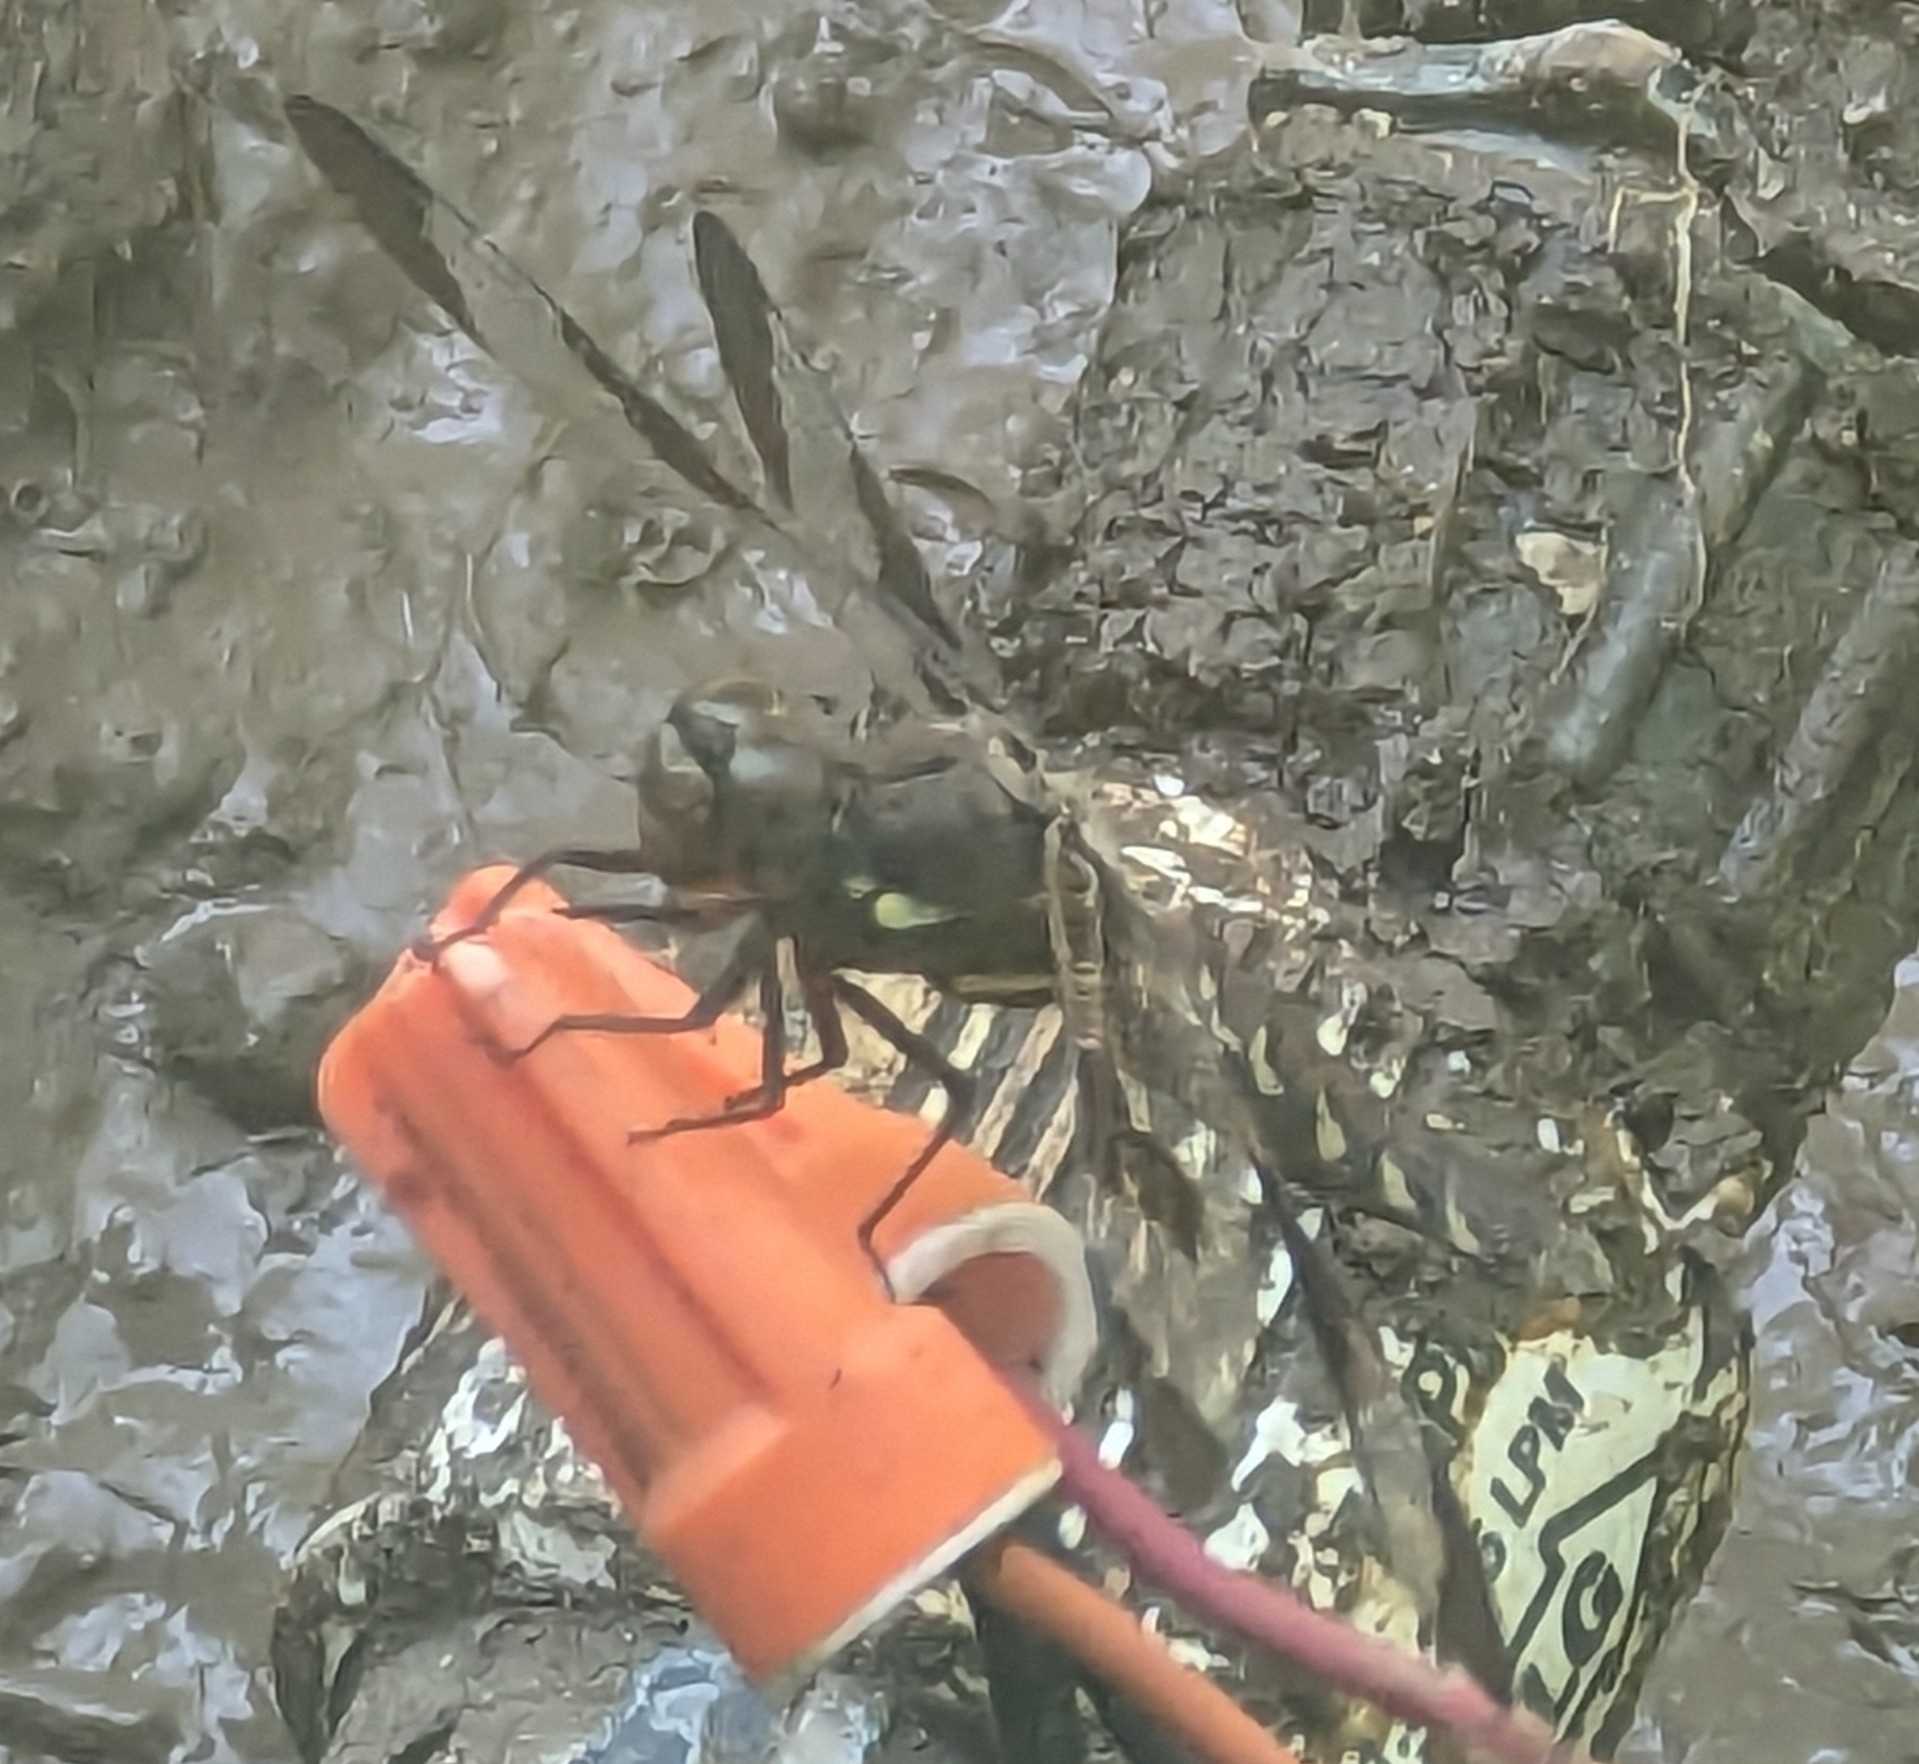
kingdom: Animalia
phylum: Arthropoda
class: Insecta
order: Odonata
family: Libellulidae
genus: Plathemis
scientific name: Plathemis lydia
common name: Common whitetail
